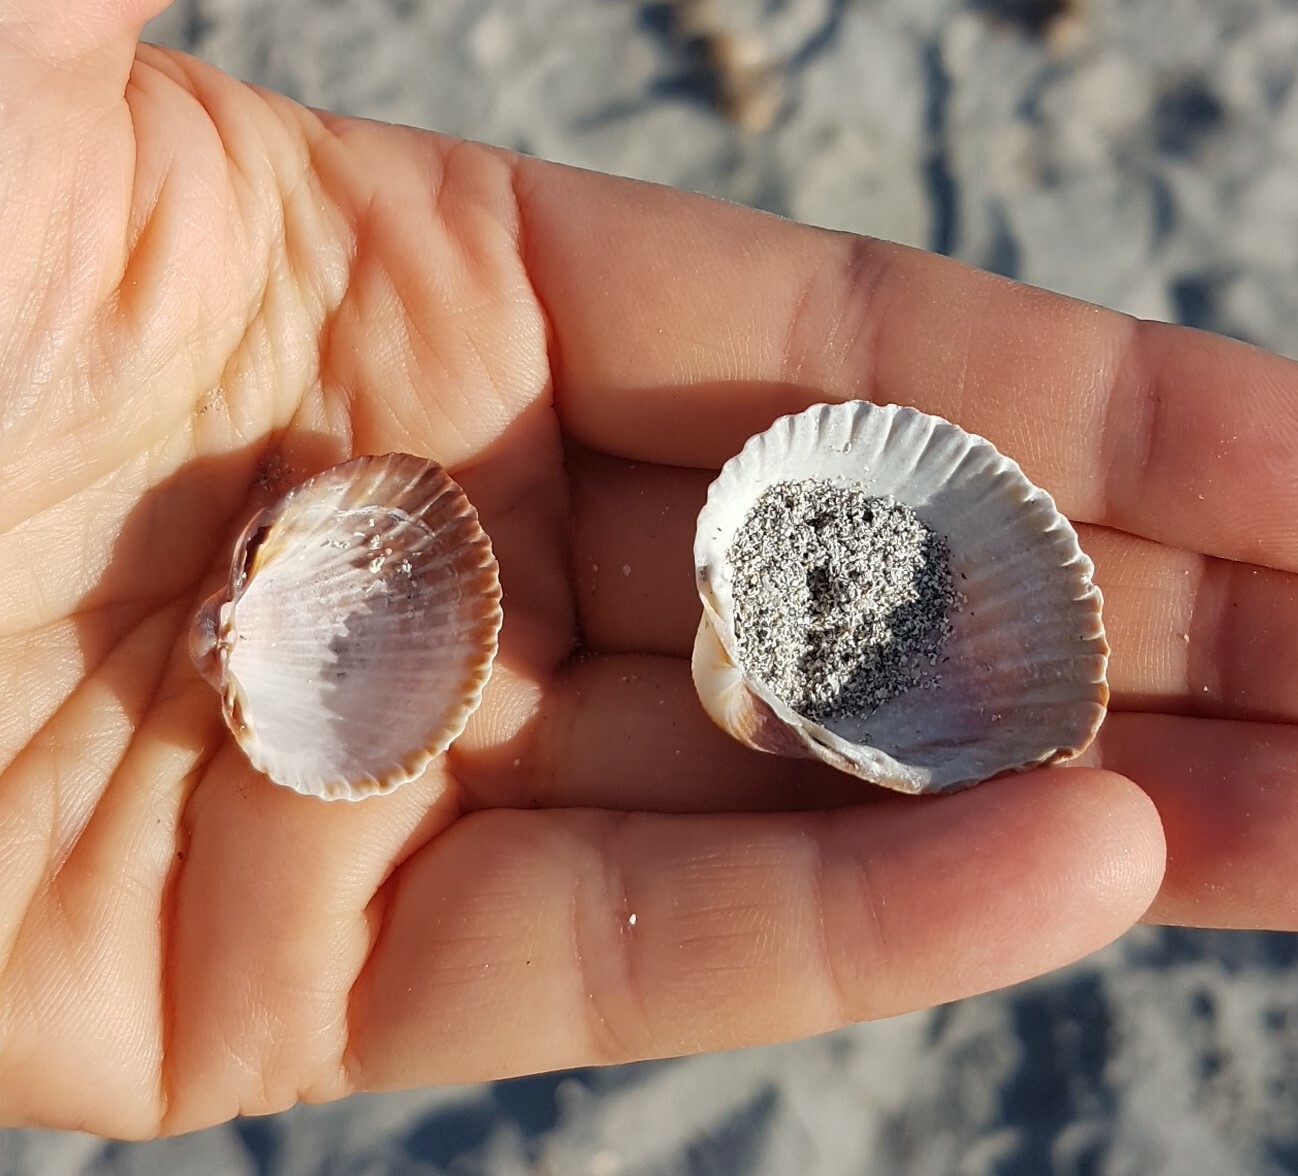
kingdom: Animalia
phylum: Mollusca
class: Bivalvia
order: Cardiida
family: Cardiidae
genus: Cerastoderma
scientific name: Cerastoderma glaucum
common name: Lagoon cockle
